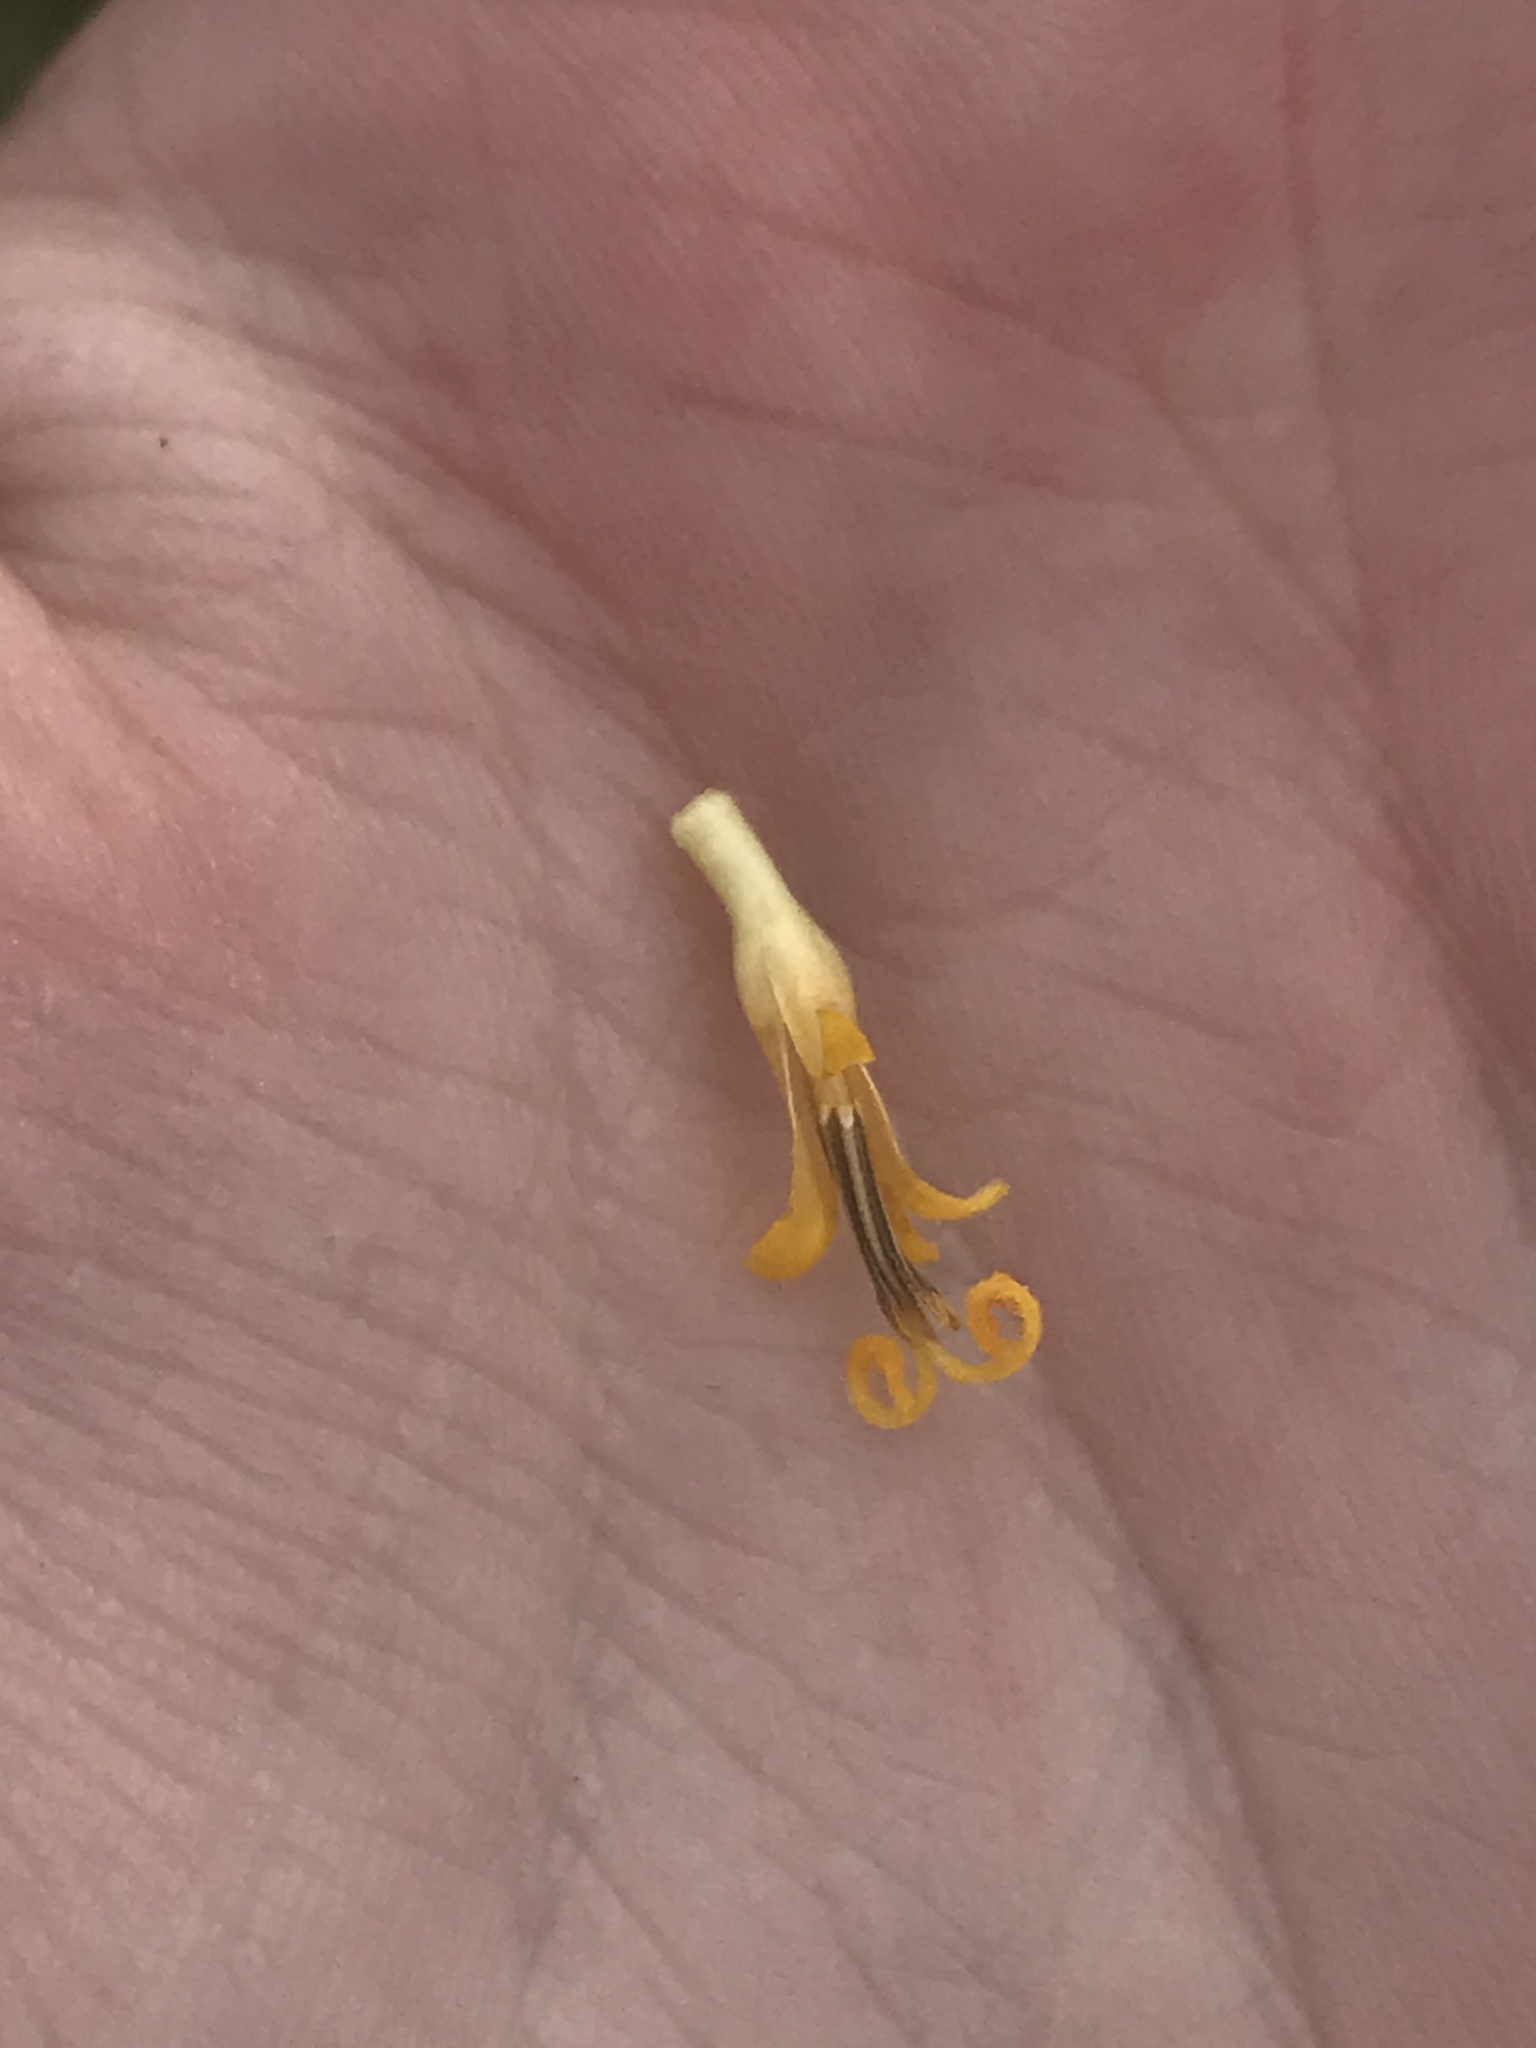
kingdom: Plantae
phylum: Tracheophyta
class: Magnoliopsida
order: Asterales
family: Asteraceae
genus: Wyethia
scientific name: Wyethia angustifolia
